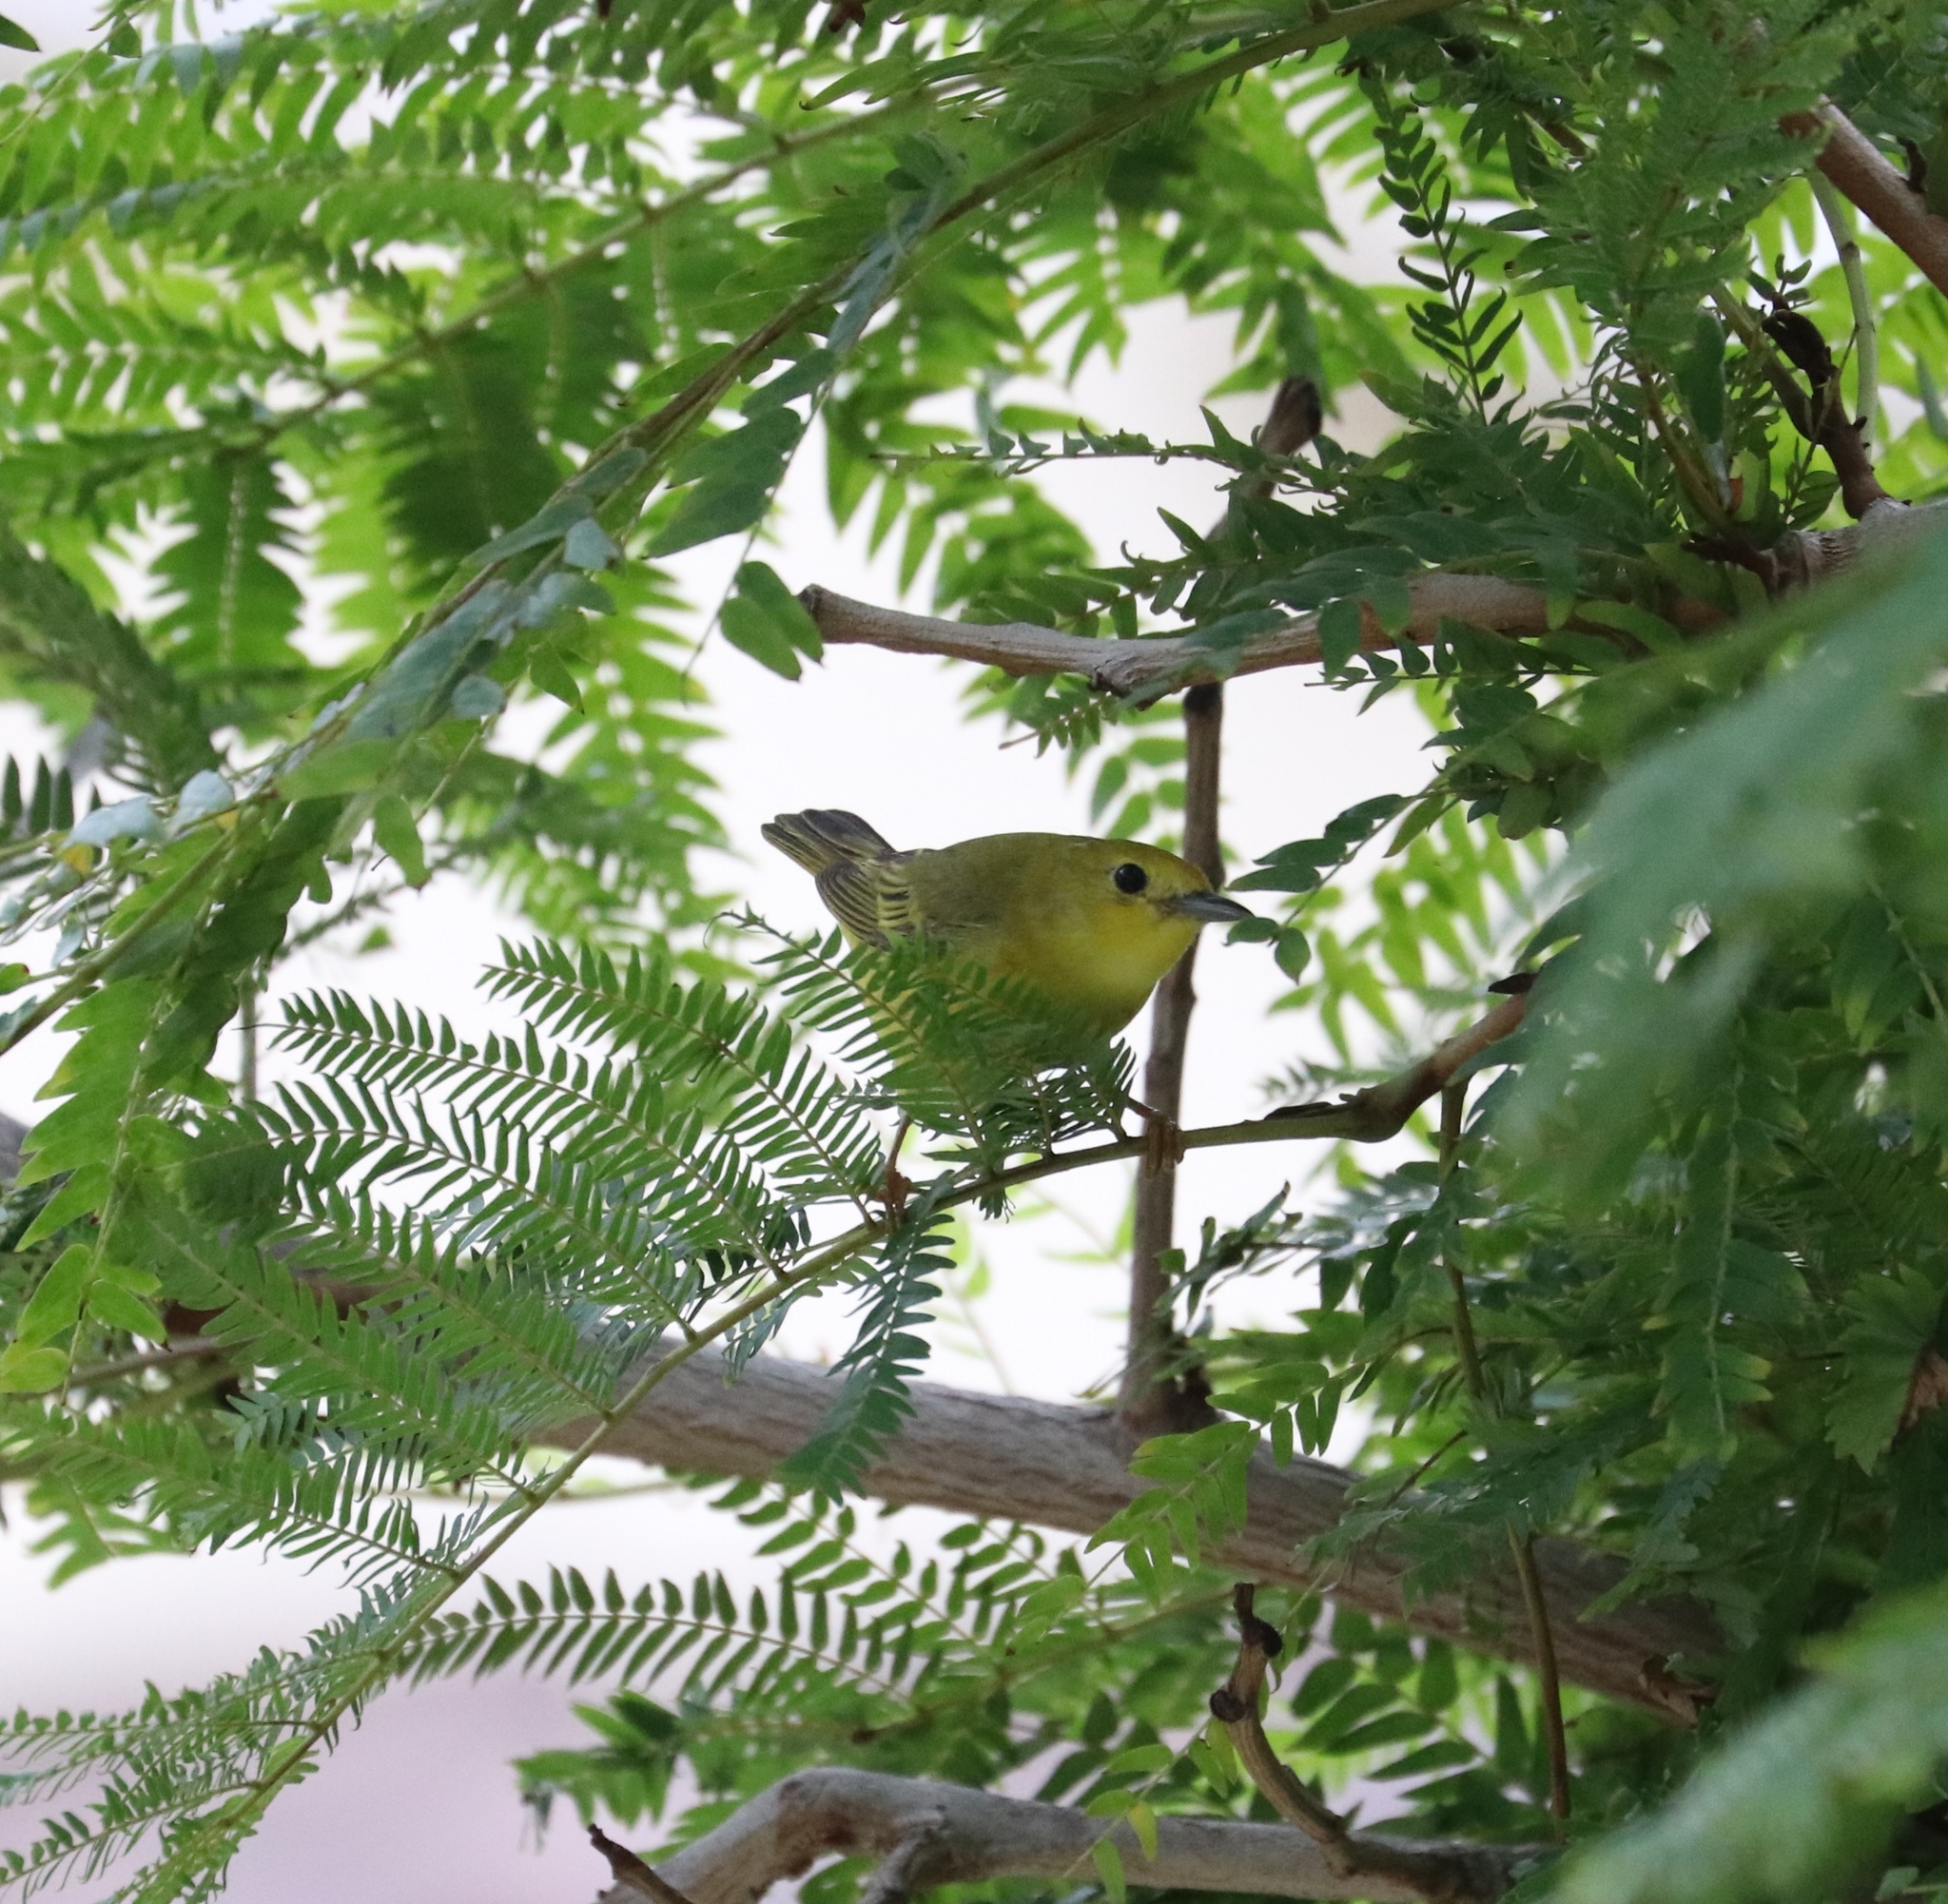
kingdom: Animalia
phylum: Chordata
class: Aves
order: Passeriformes
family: Parulidae
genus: Setophaga
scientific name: Setophaga petechia
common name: Yellow warbler
